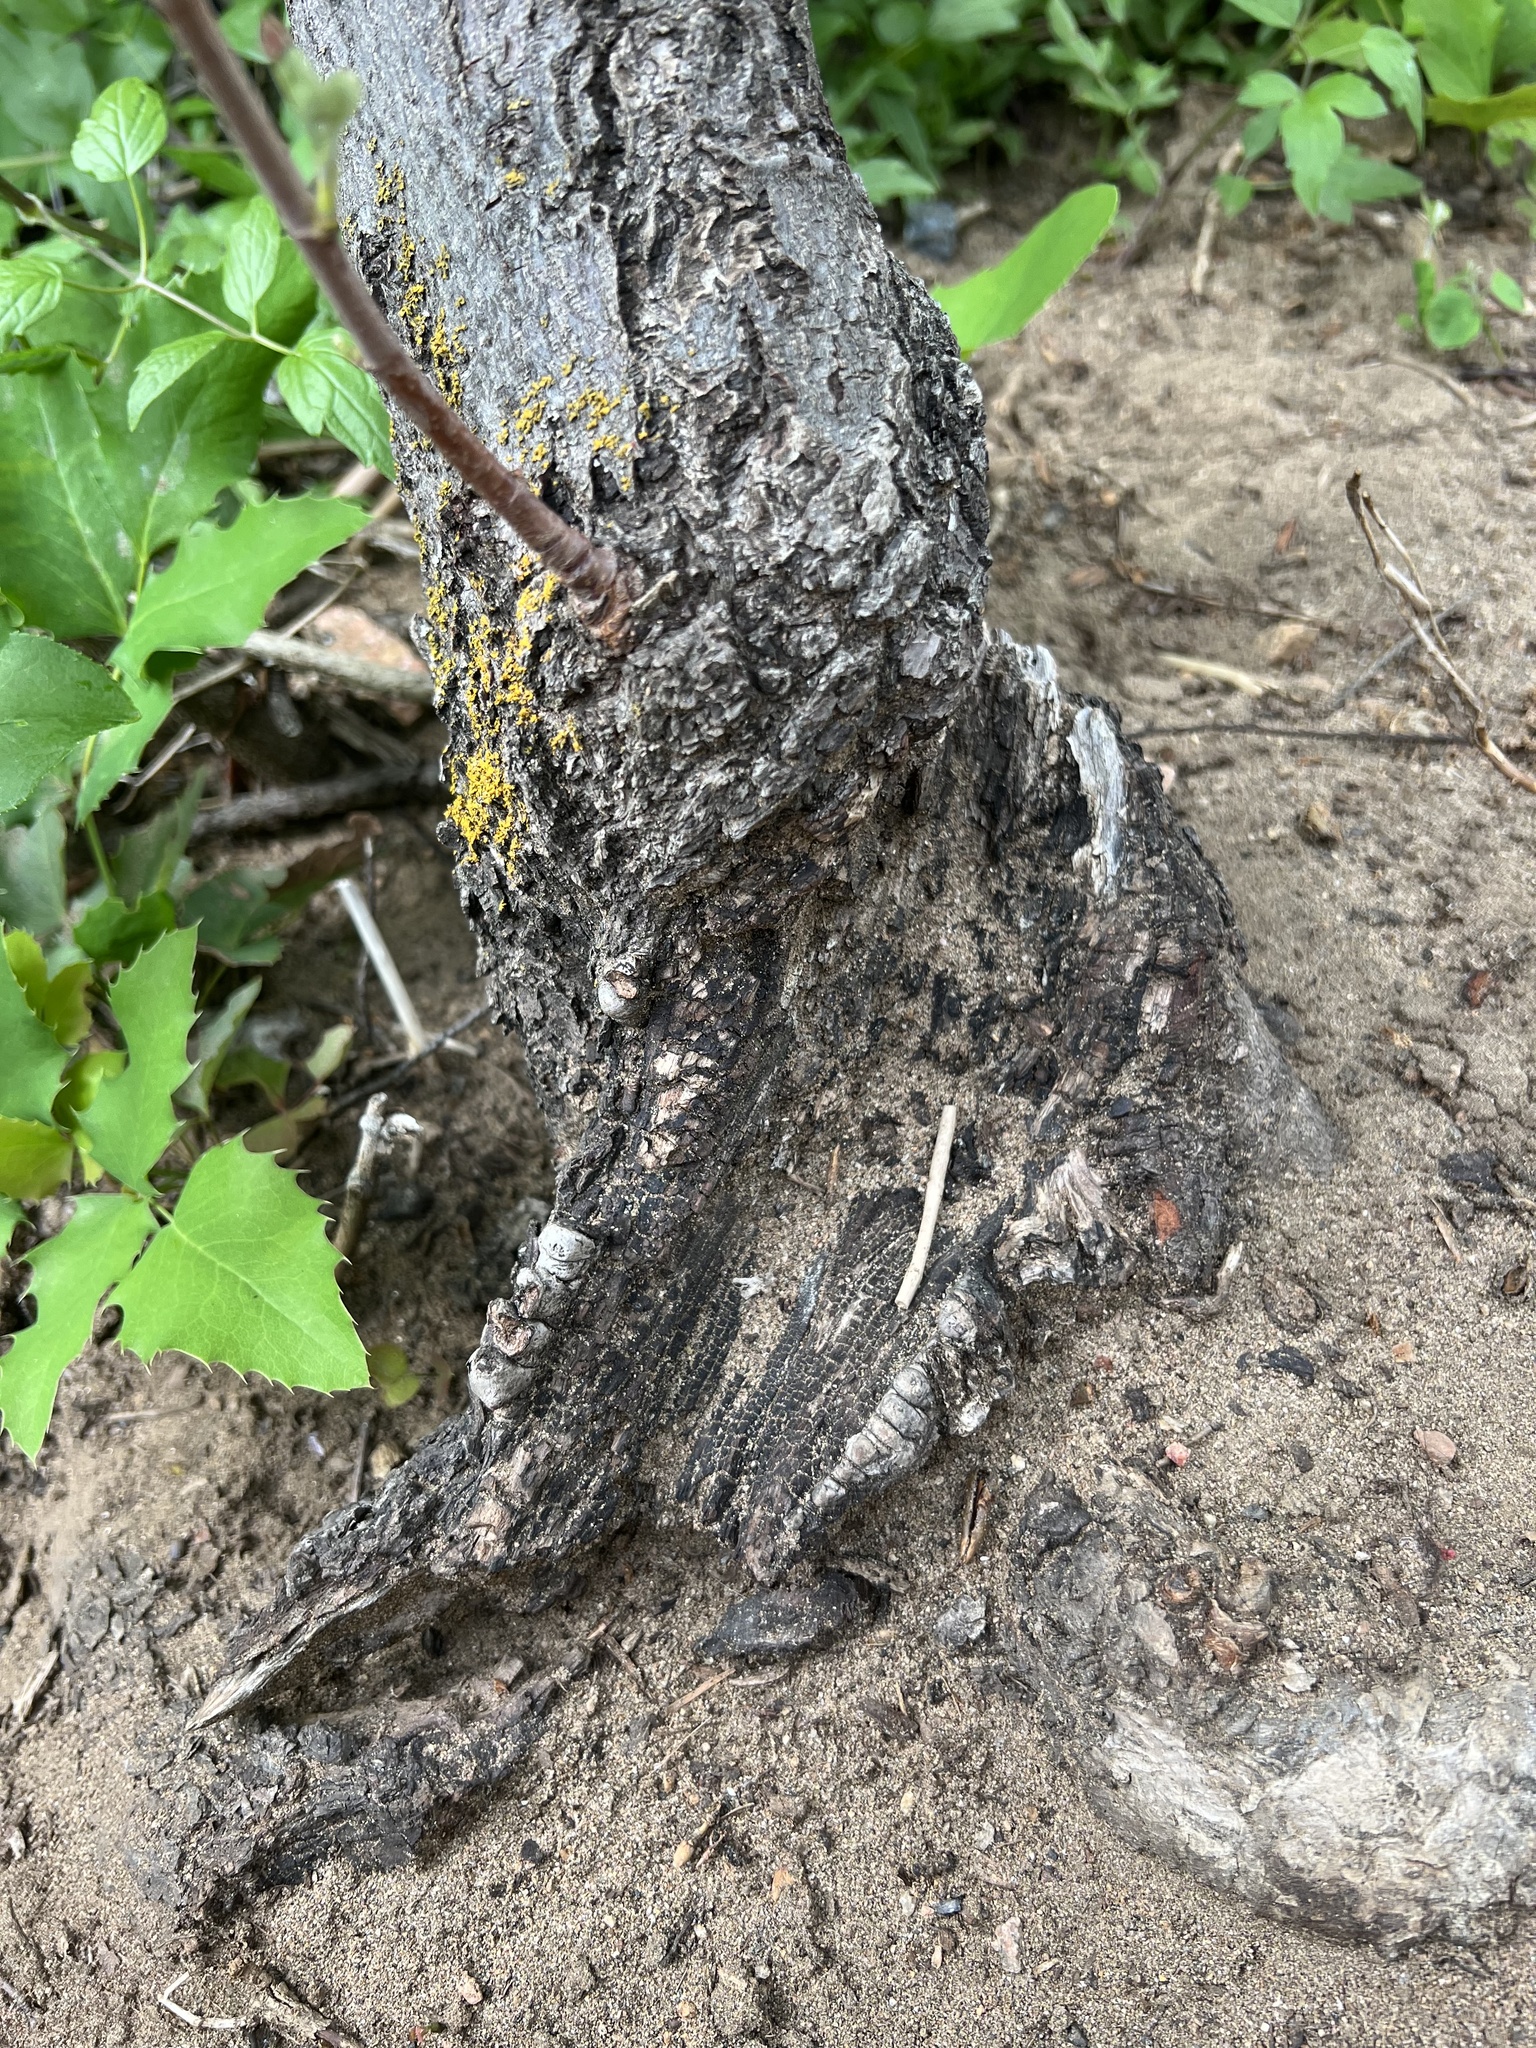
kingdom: Plantae
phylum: Tracheophyta
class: Magnoliopsida
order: Rosales
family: Rosaceae
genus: Amelanchier
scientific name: Amelanchier alnifolia
